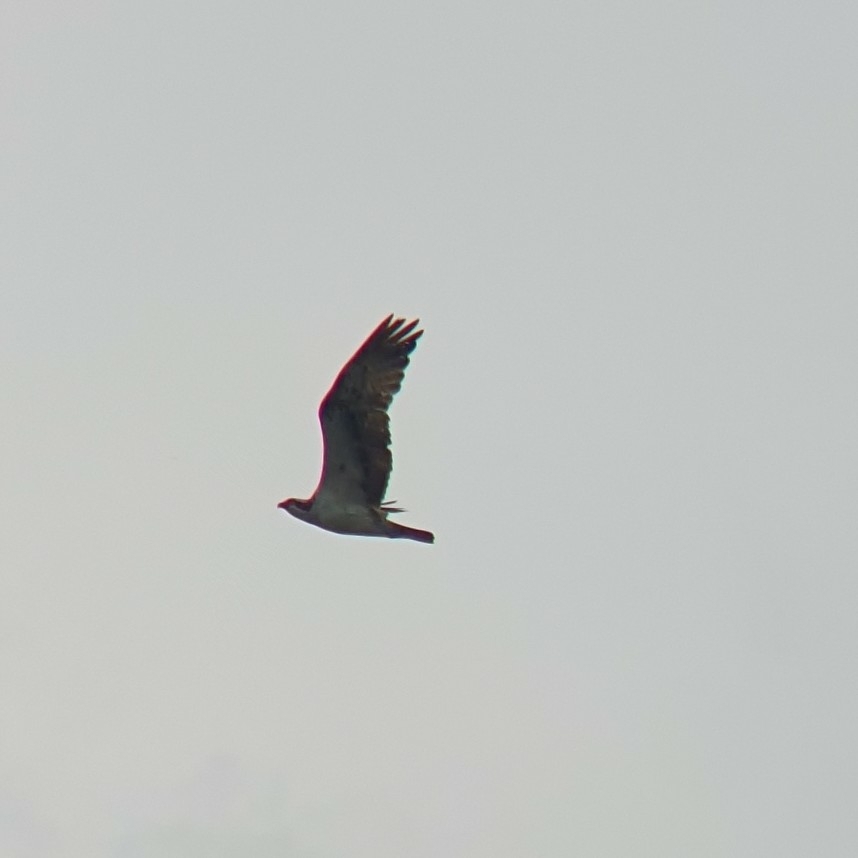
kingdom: Animalia
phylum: Chordata
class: Aves
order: Accipitriformes
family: Pandionidae
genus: Pandion
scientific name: Pandion haliaetus
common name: Osprey
